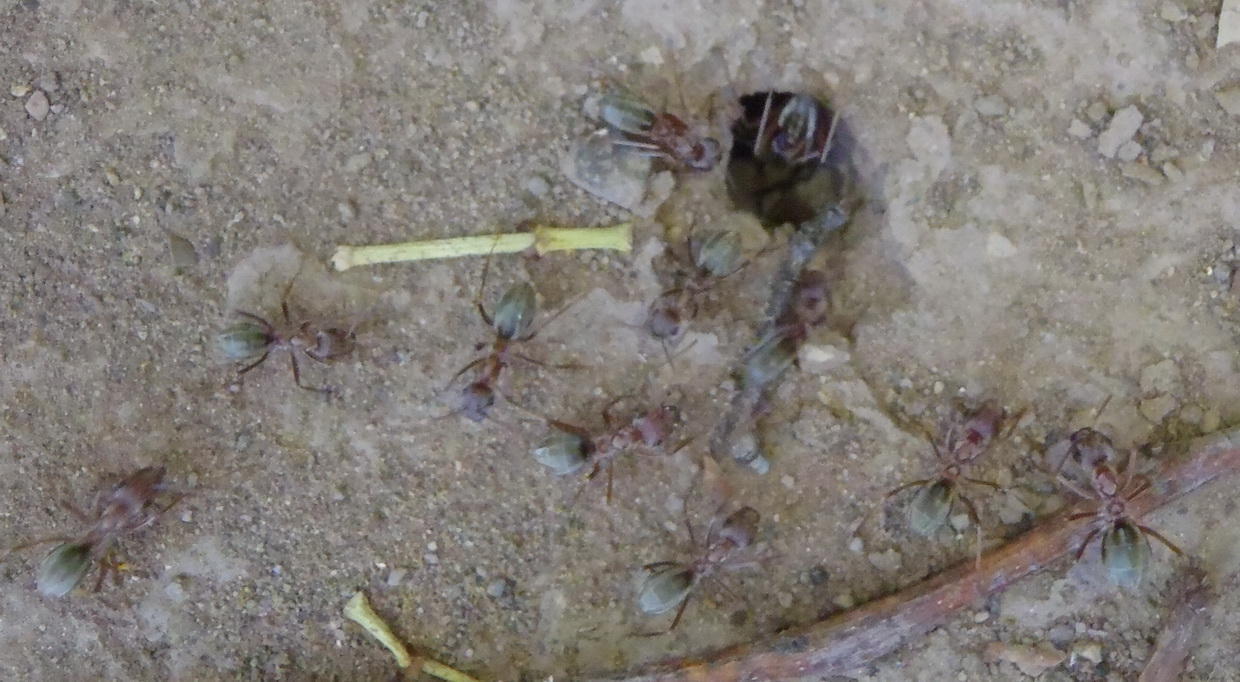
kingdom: Animalia
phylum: Arthropoda
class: Insecta
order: Hymenoptera
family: Formicidae
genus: Anoplolepis
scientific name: Anoplolepis custodiens
